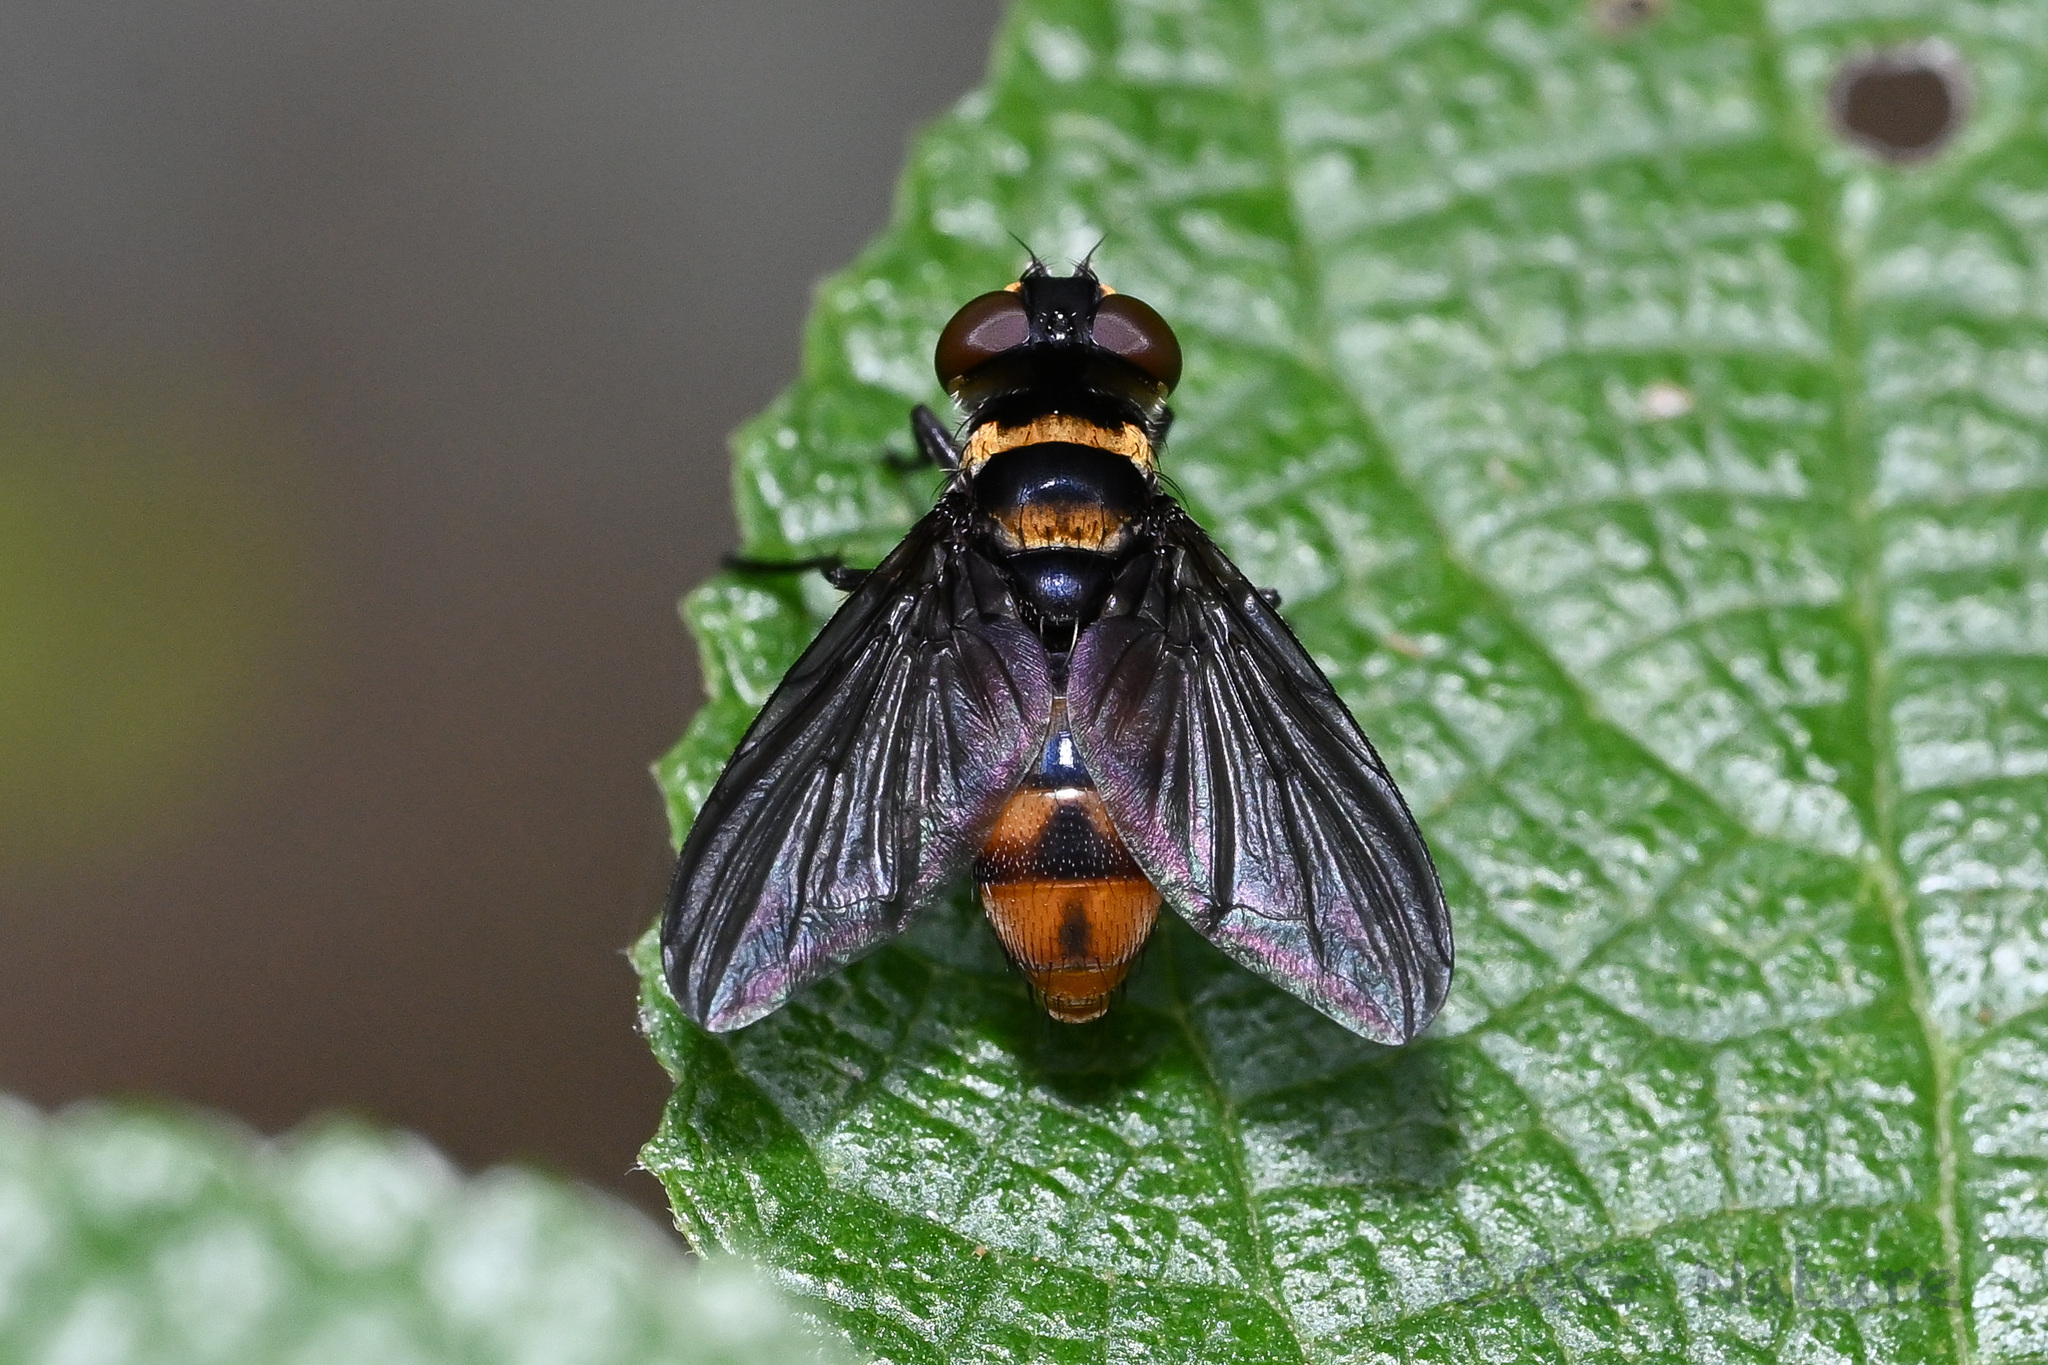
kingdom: Animalia
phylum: Arthropoda
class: Insecta
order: Diptera
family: Tachinidae
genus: Pentatomophaga
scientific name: Pentatomophaga latifascia
